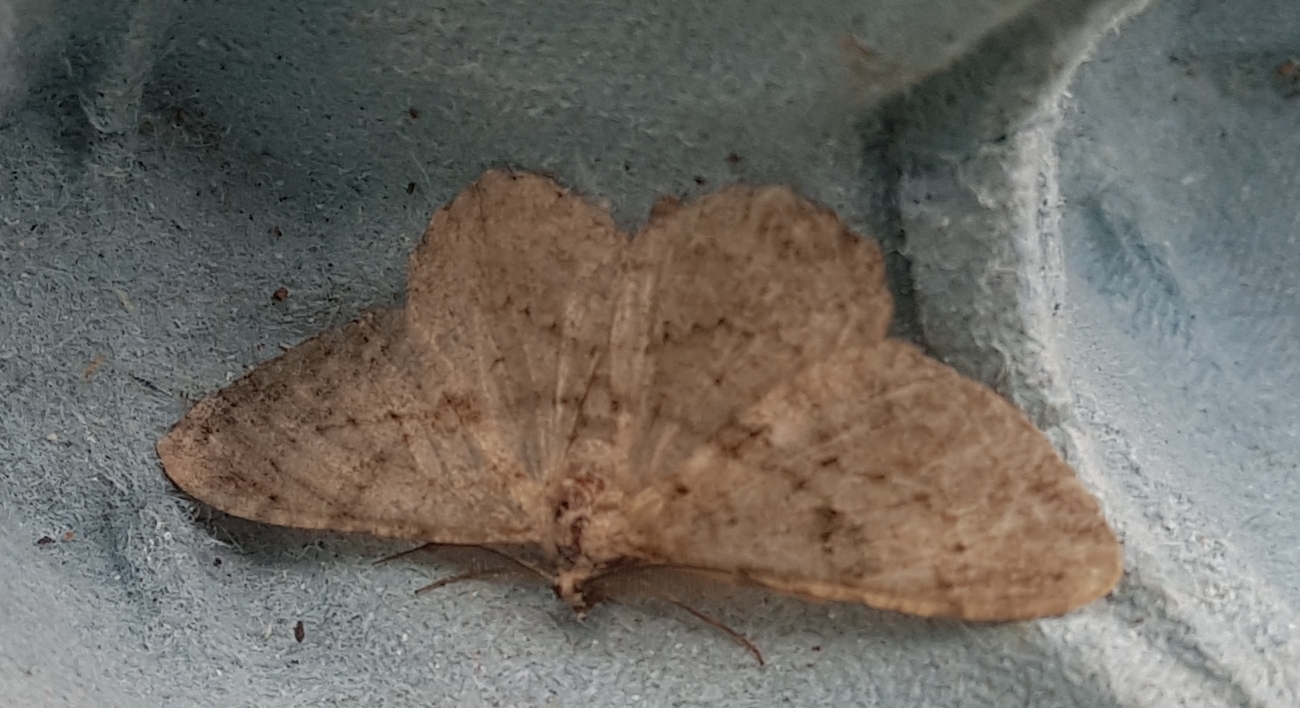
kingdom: Animalia
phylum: Arthropoda
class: Insecta
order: Lepidoptera
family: Geometridae
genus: Peribatodes
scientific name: Peribatodes rhomboidaria
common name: Willow beauty
